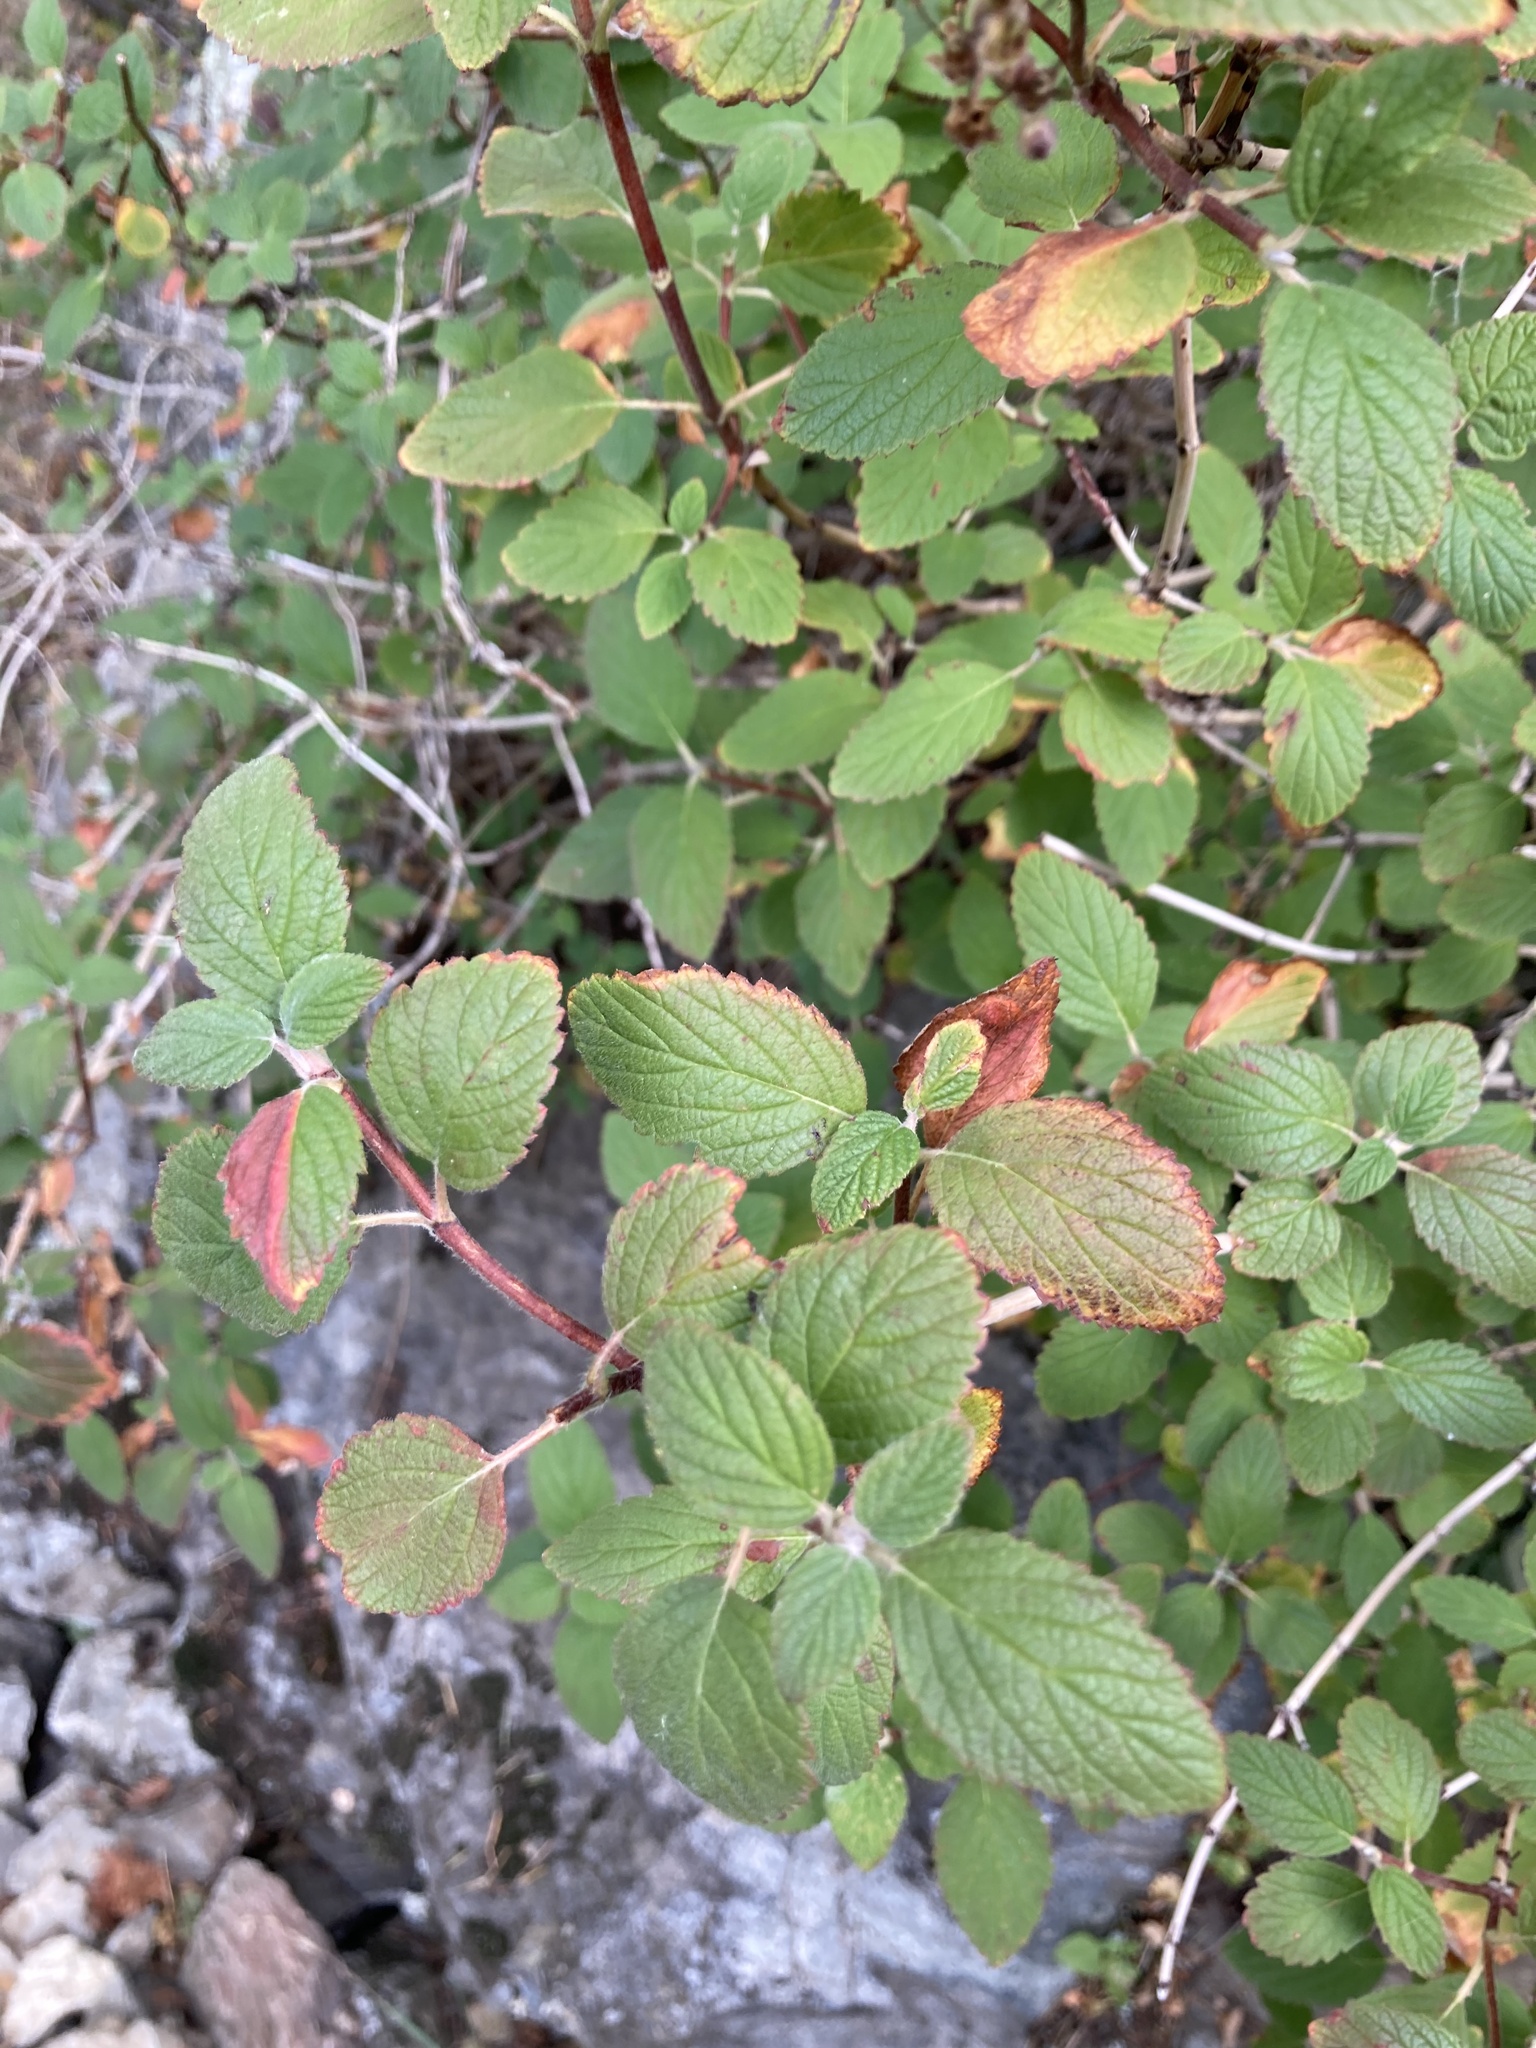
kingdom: Plantae
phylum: Tracheophyta
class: Magnoliopsida
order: Cornales
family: Hydrangeaceae
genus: Jamesia
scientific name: Jamesia americana
